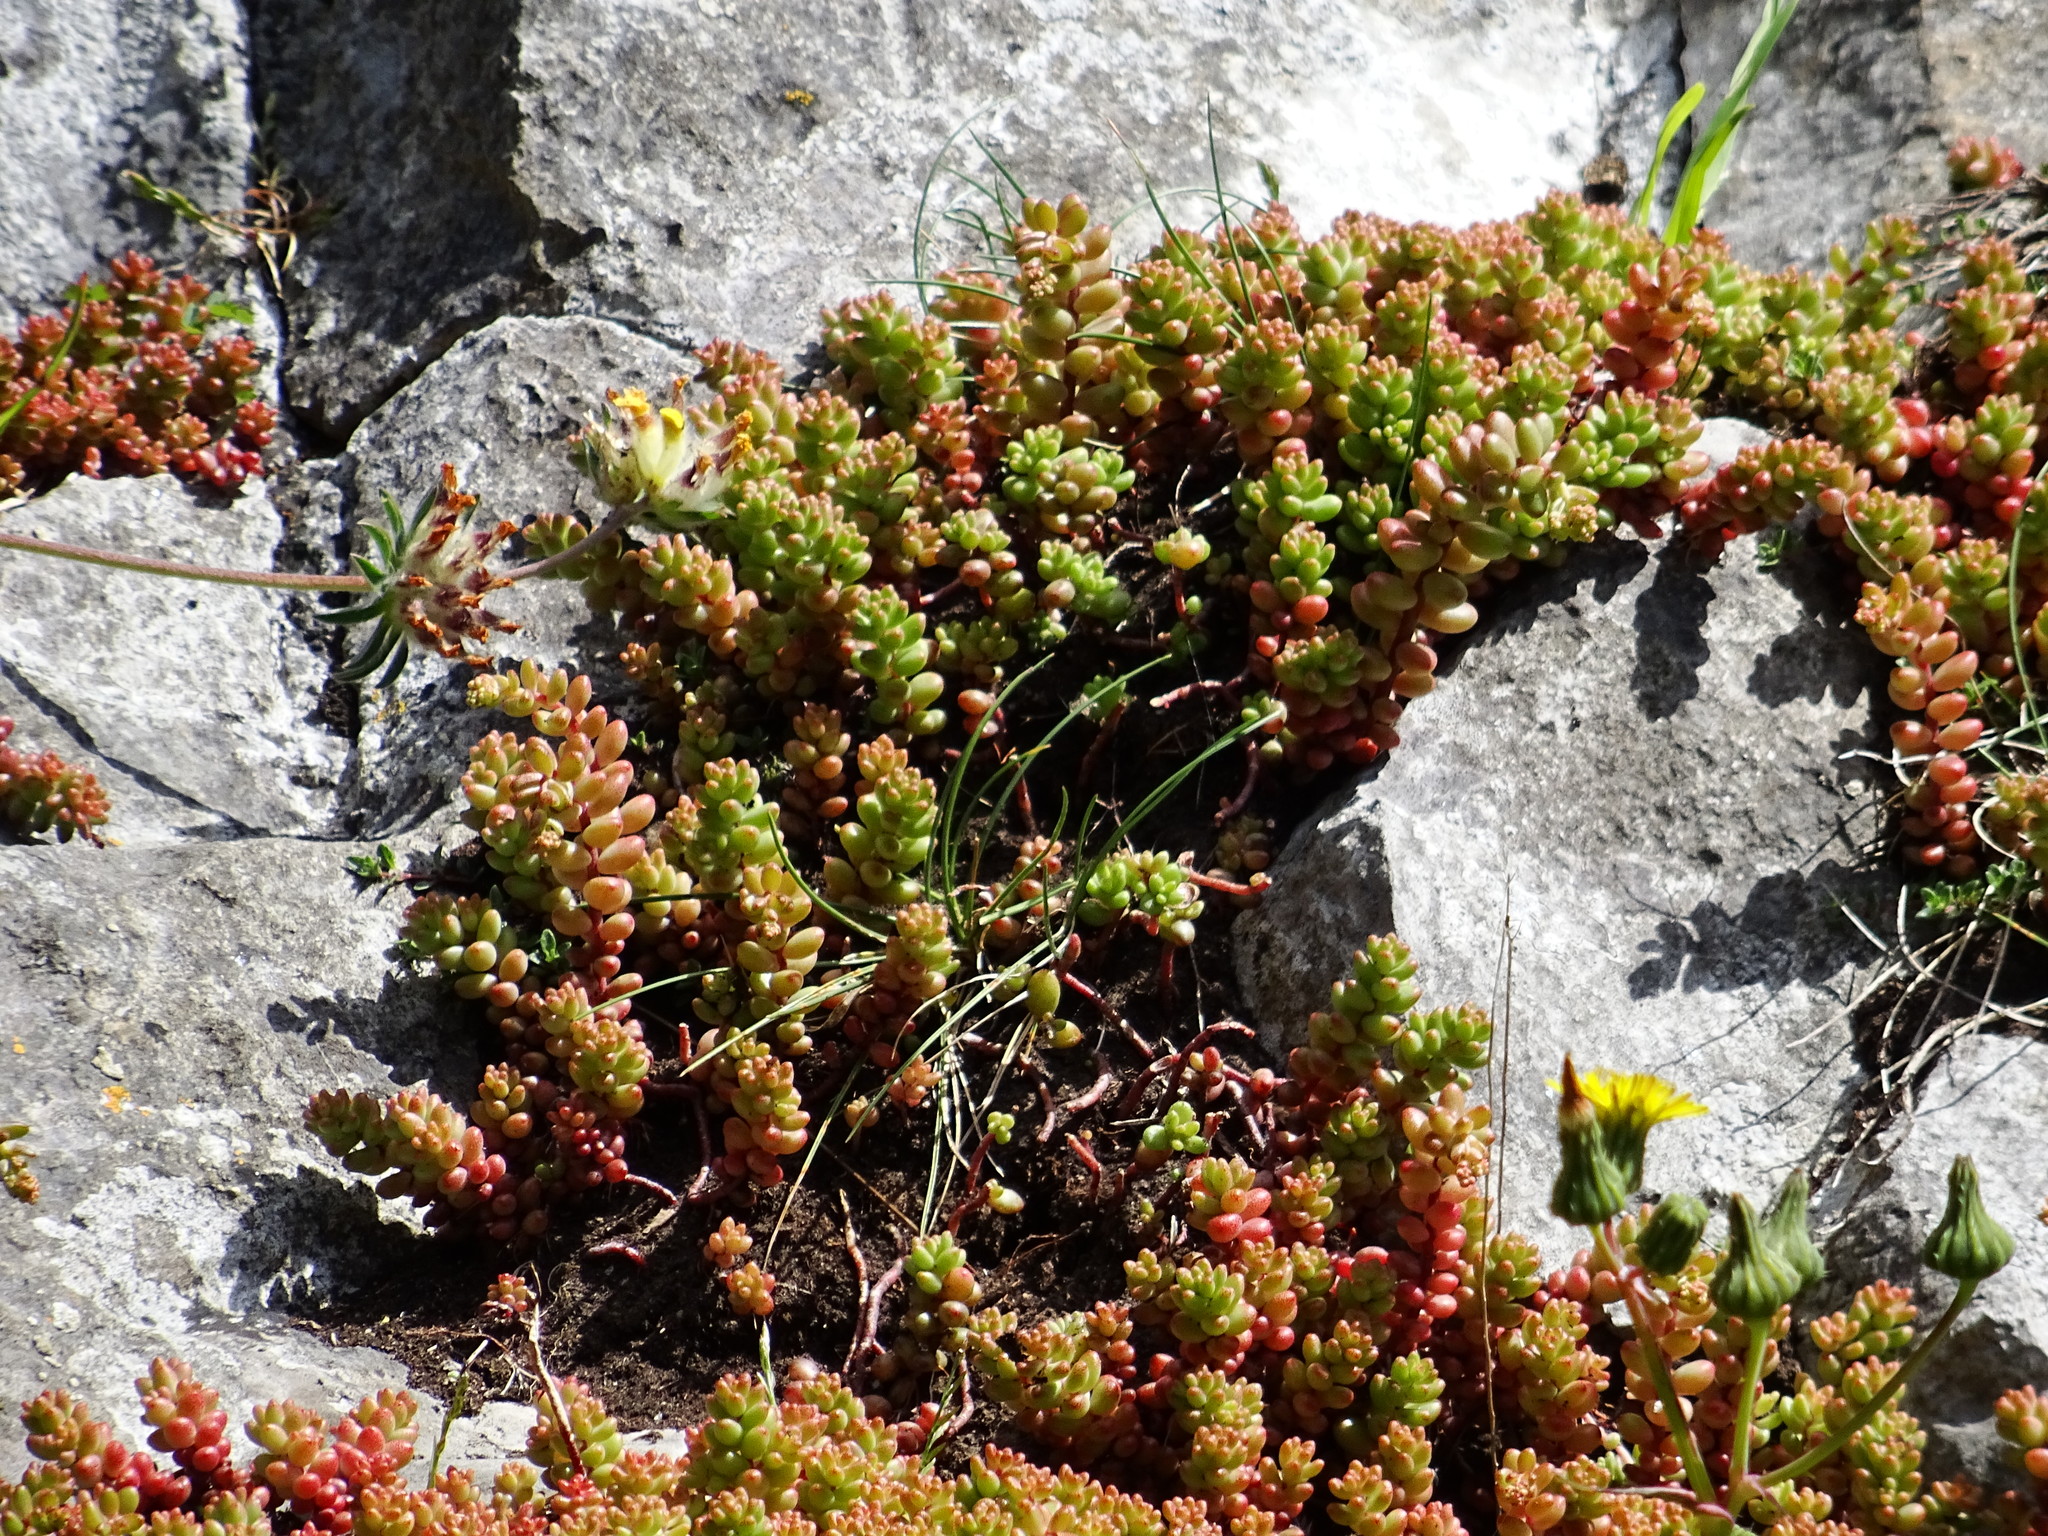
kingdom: Plantae
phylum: Tracheophyta
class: Magnoliopsida
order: Saxifragales
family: Crassulaceae
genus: Sedum
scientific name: Sedum album
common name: White stonecrop
